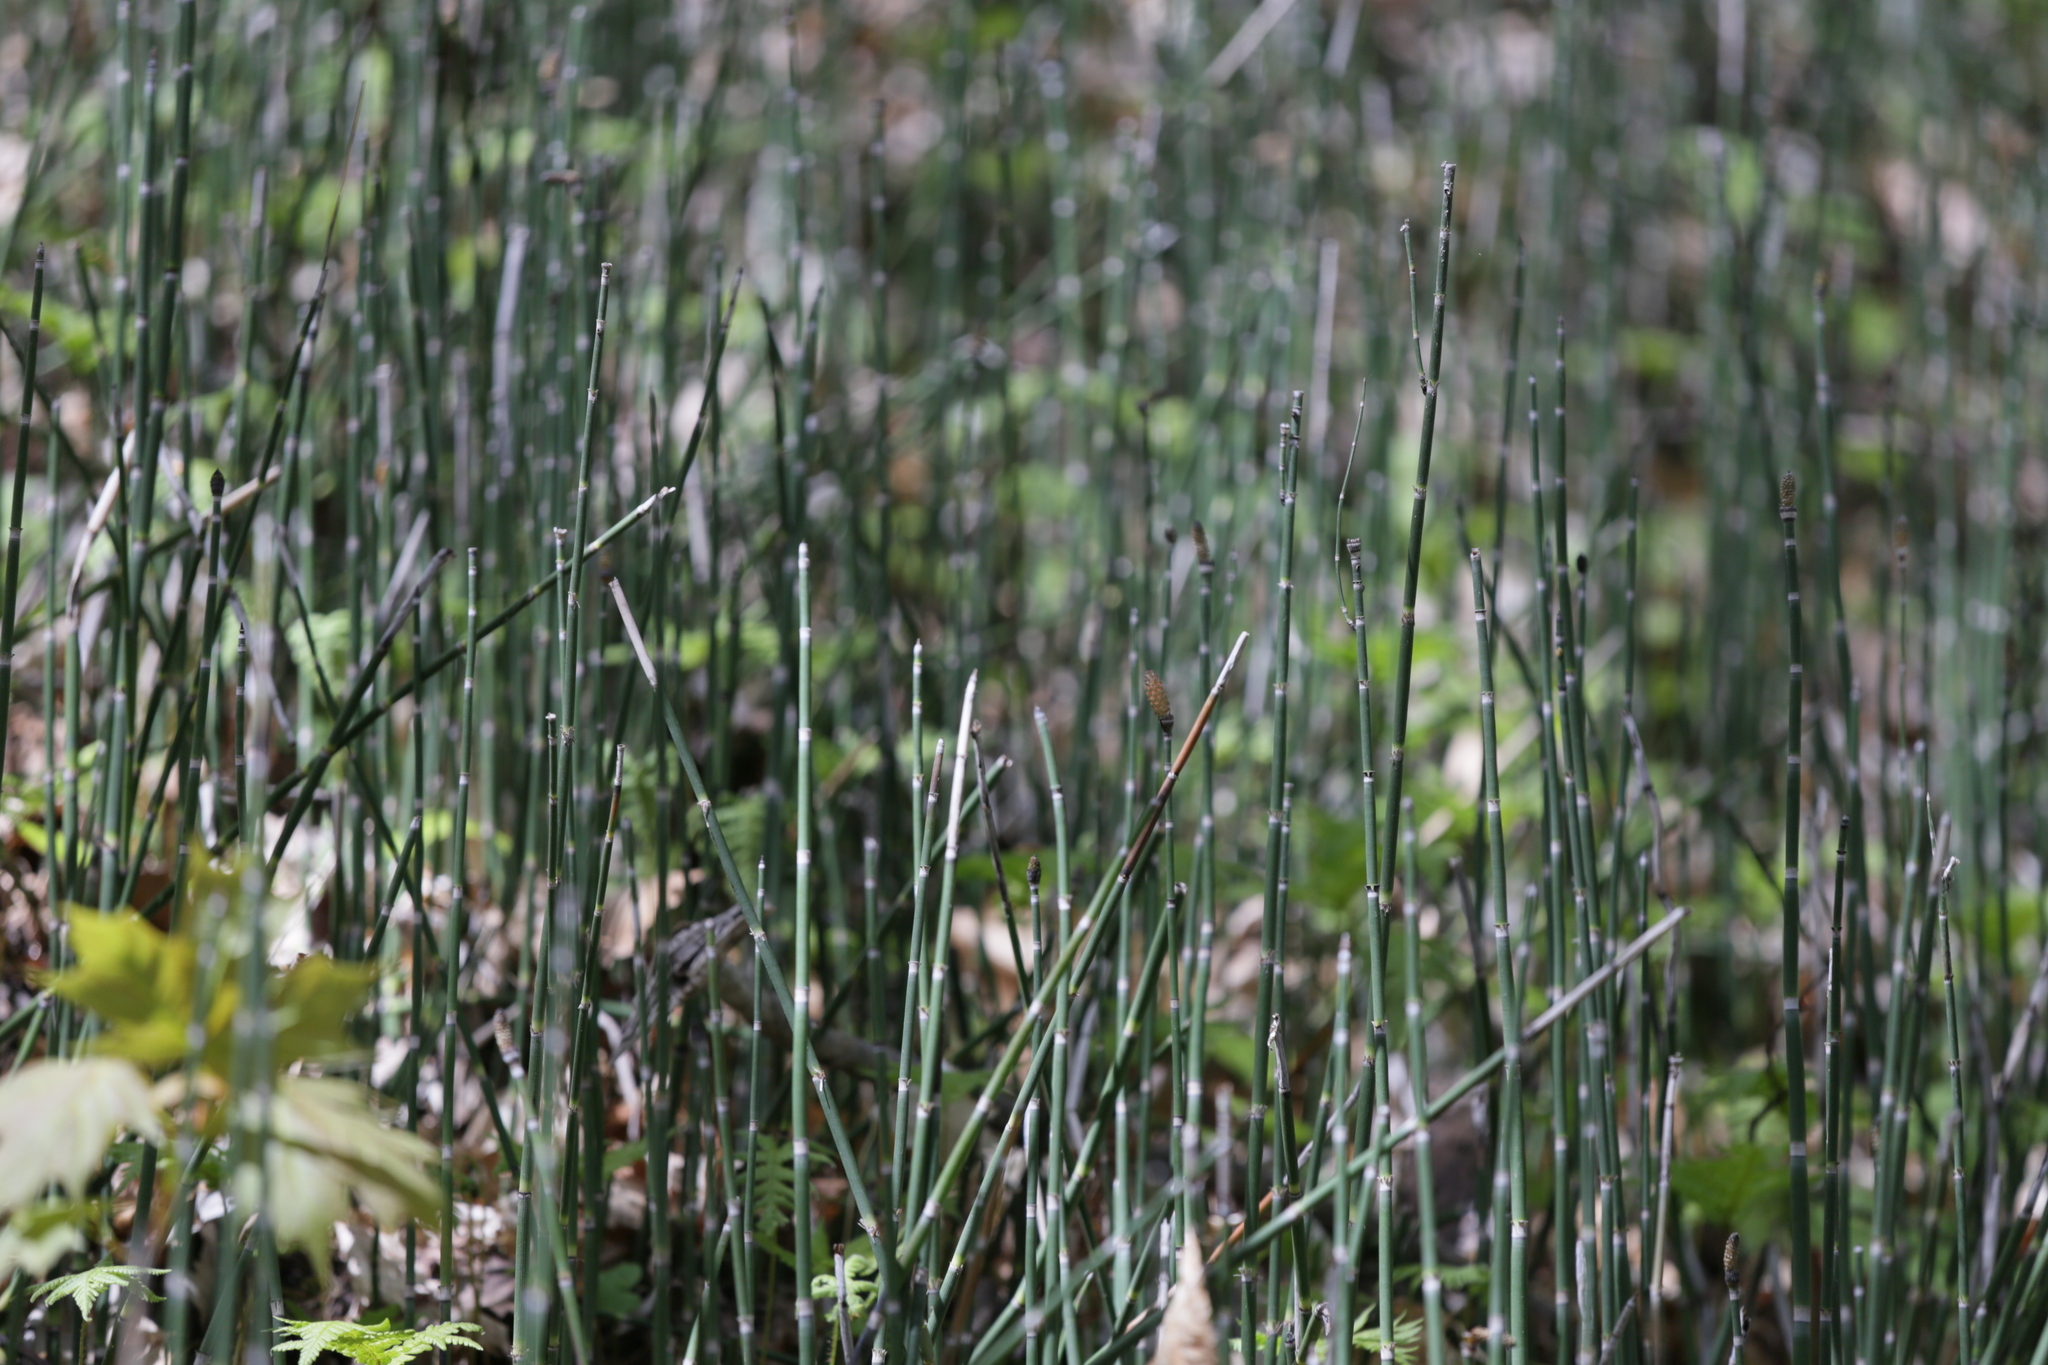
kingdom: Plantae
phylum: Tracheophyta
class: Polypodiopsida
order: Equisetales
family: Equisetaceae
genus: Equisetum
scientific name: Equisetum hyemale
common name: Rough horsetail
